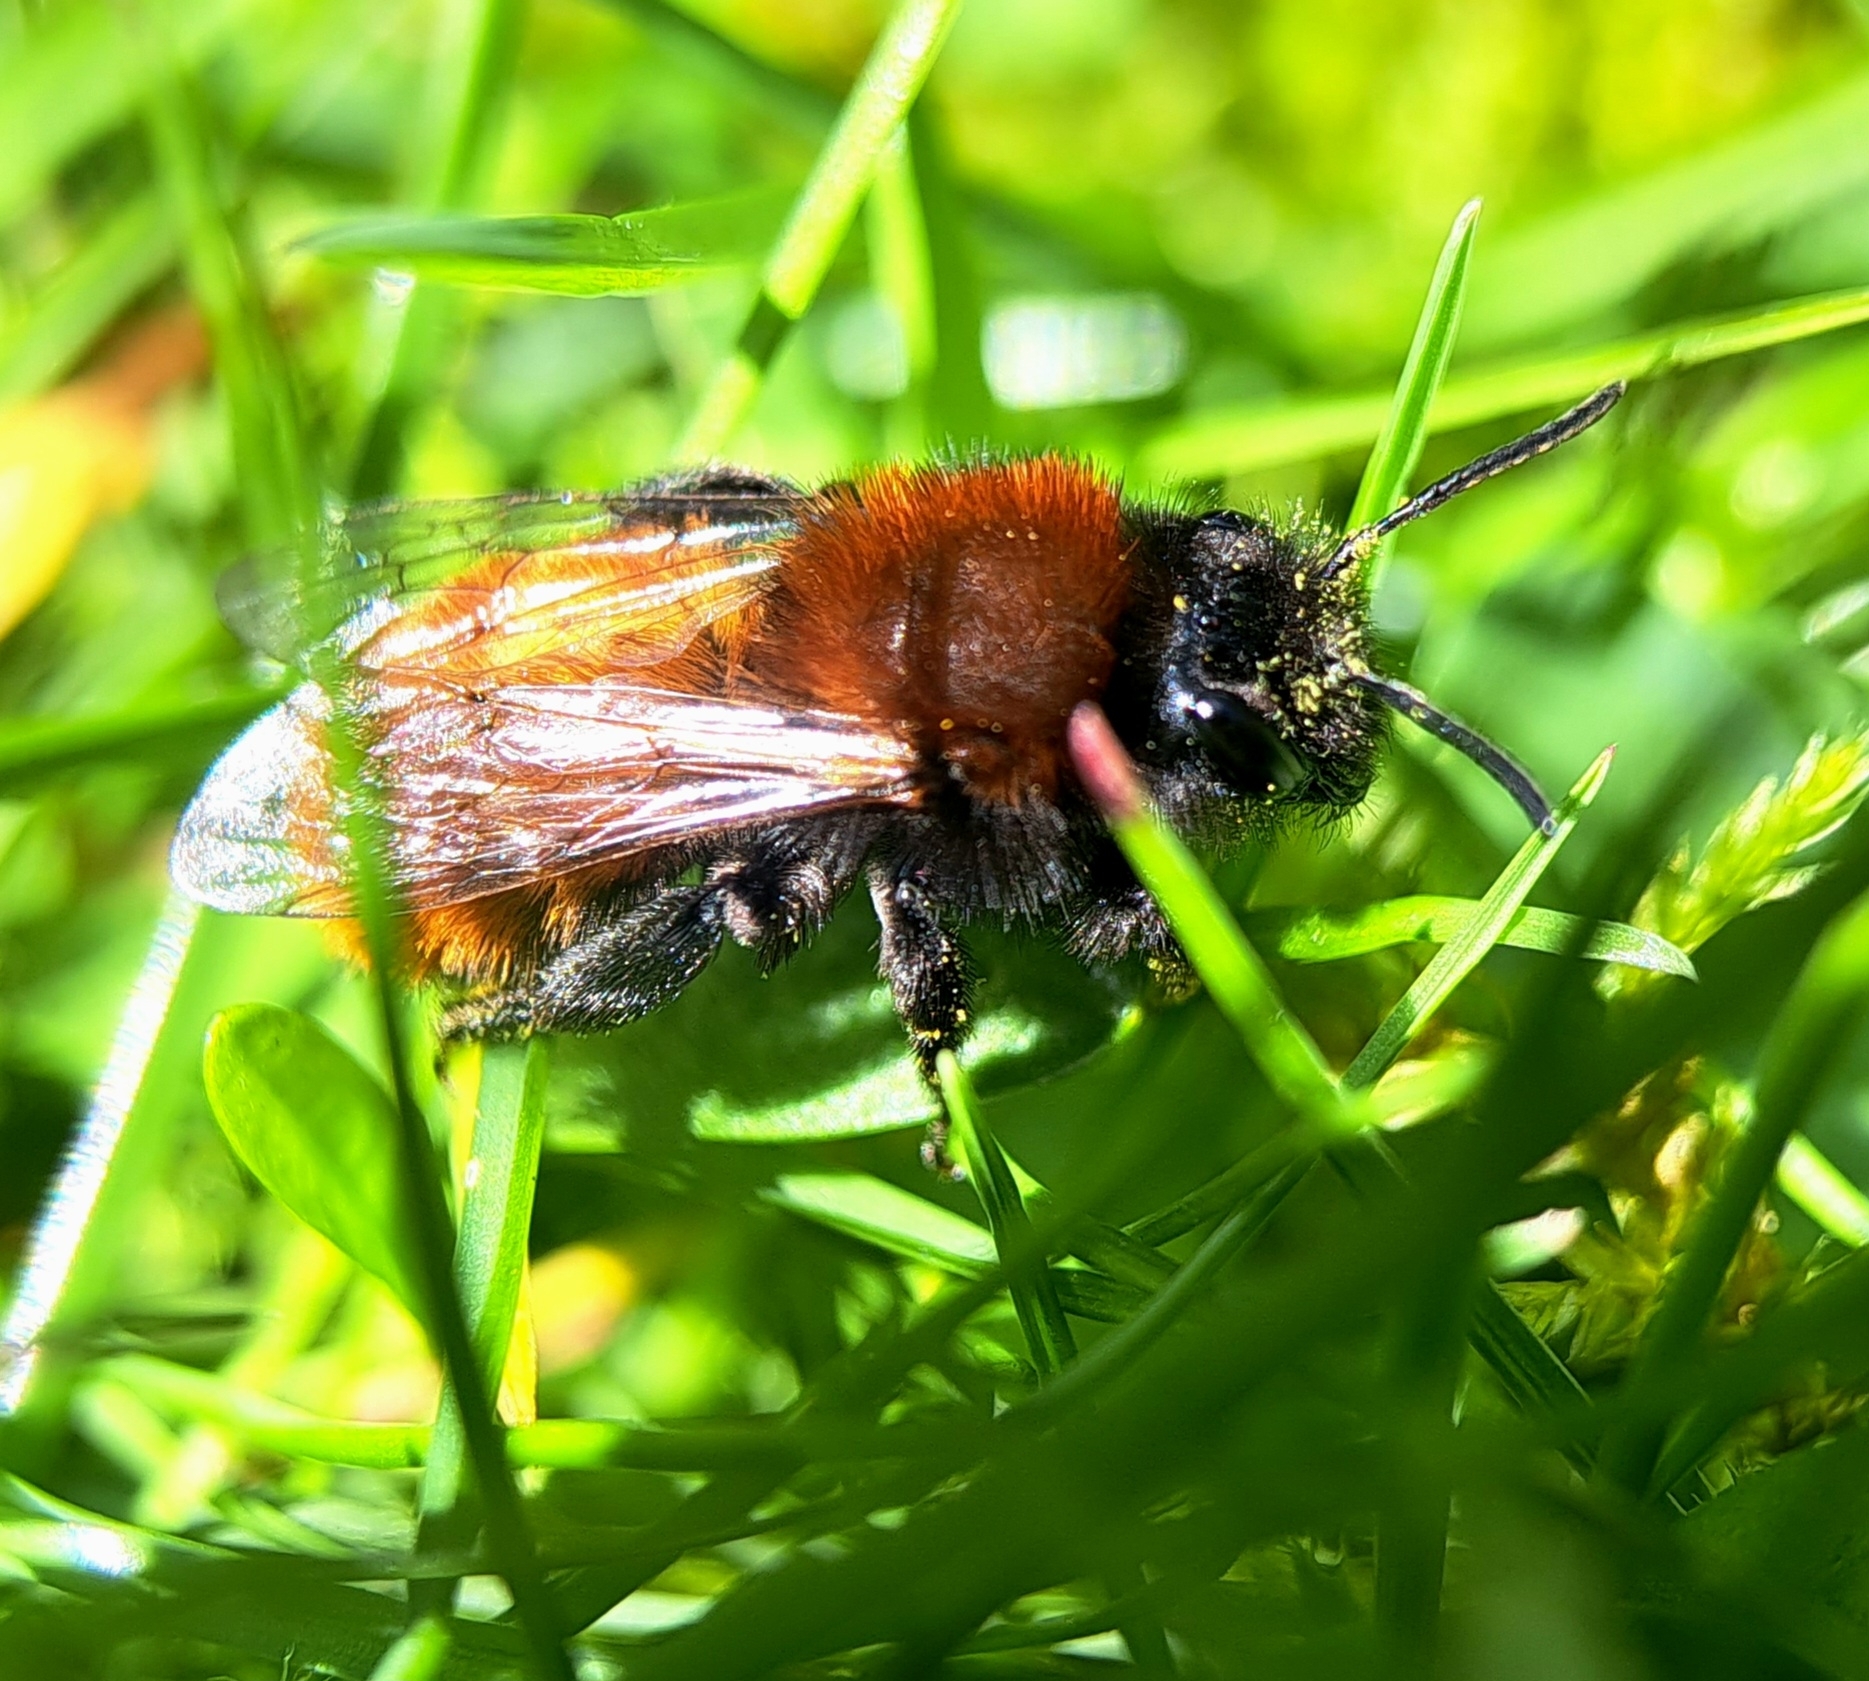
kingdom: Animalia
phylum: Arthropoda
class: Insecta
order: Hymenoptera
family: Andrenidae
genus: Andrena
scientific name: Andrena fulva
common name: Tawny mining bee
